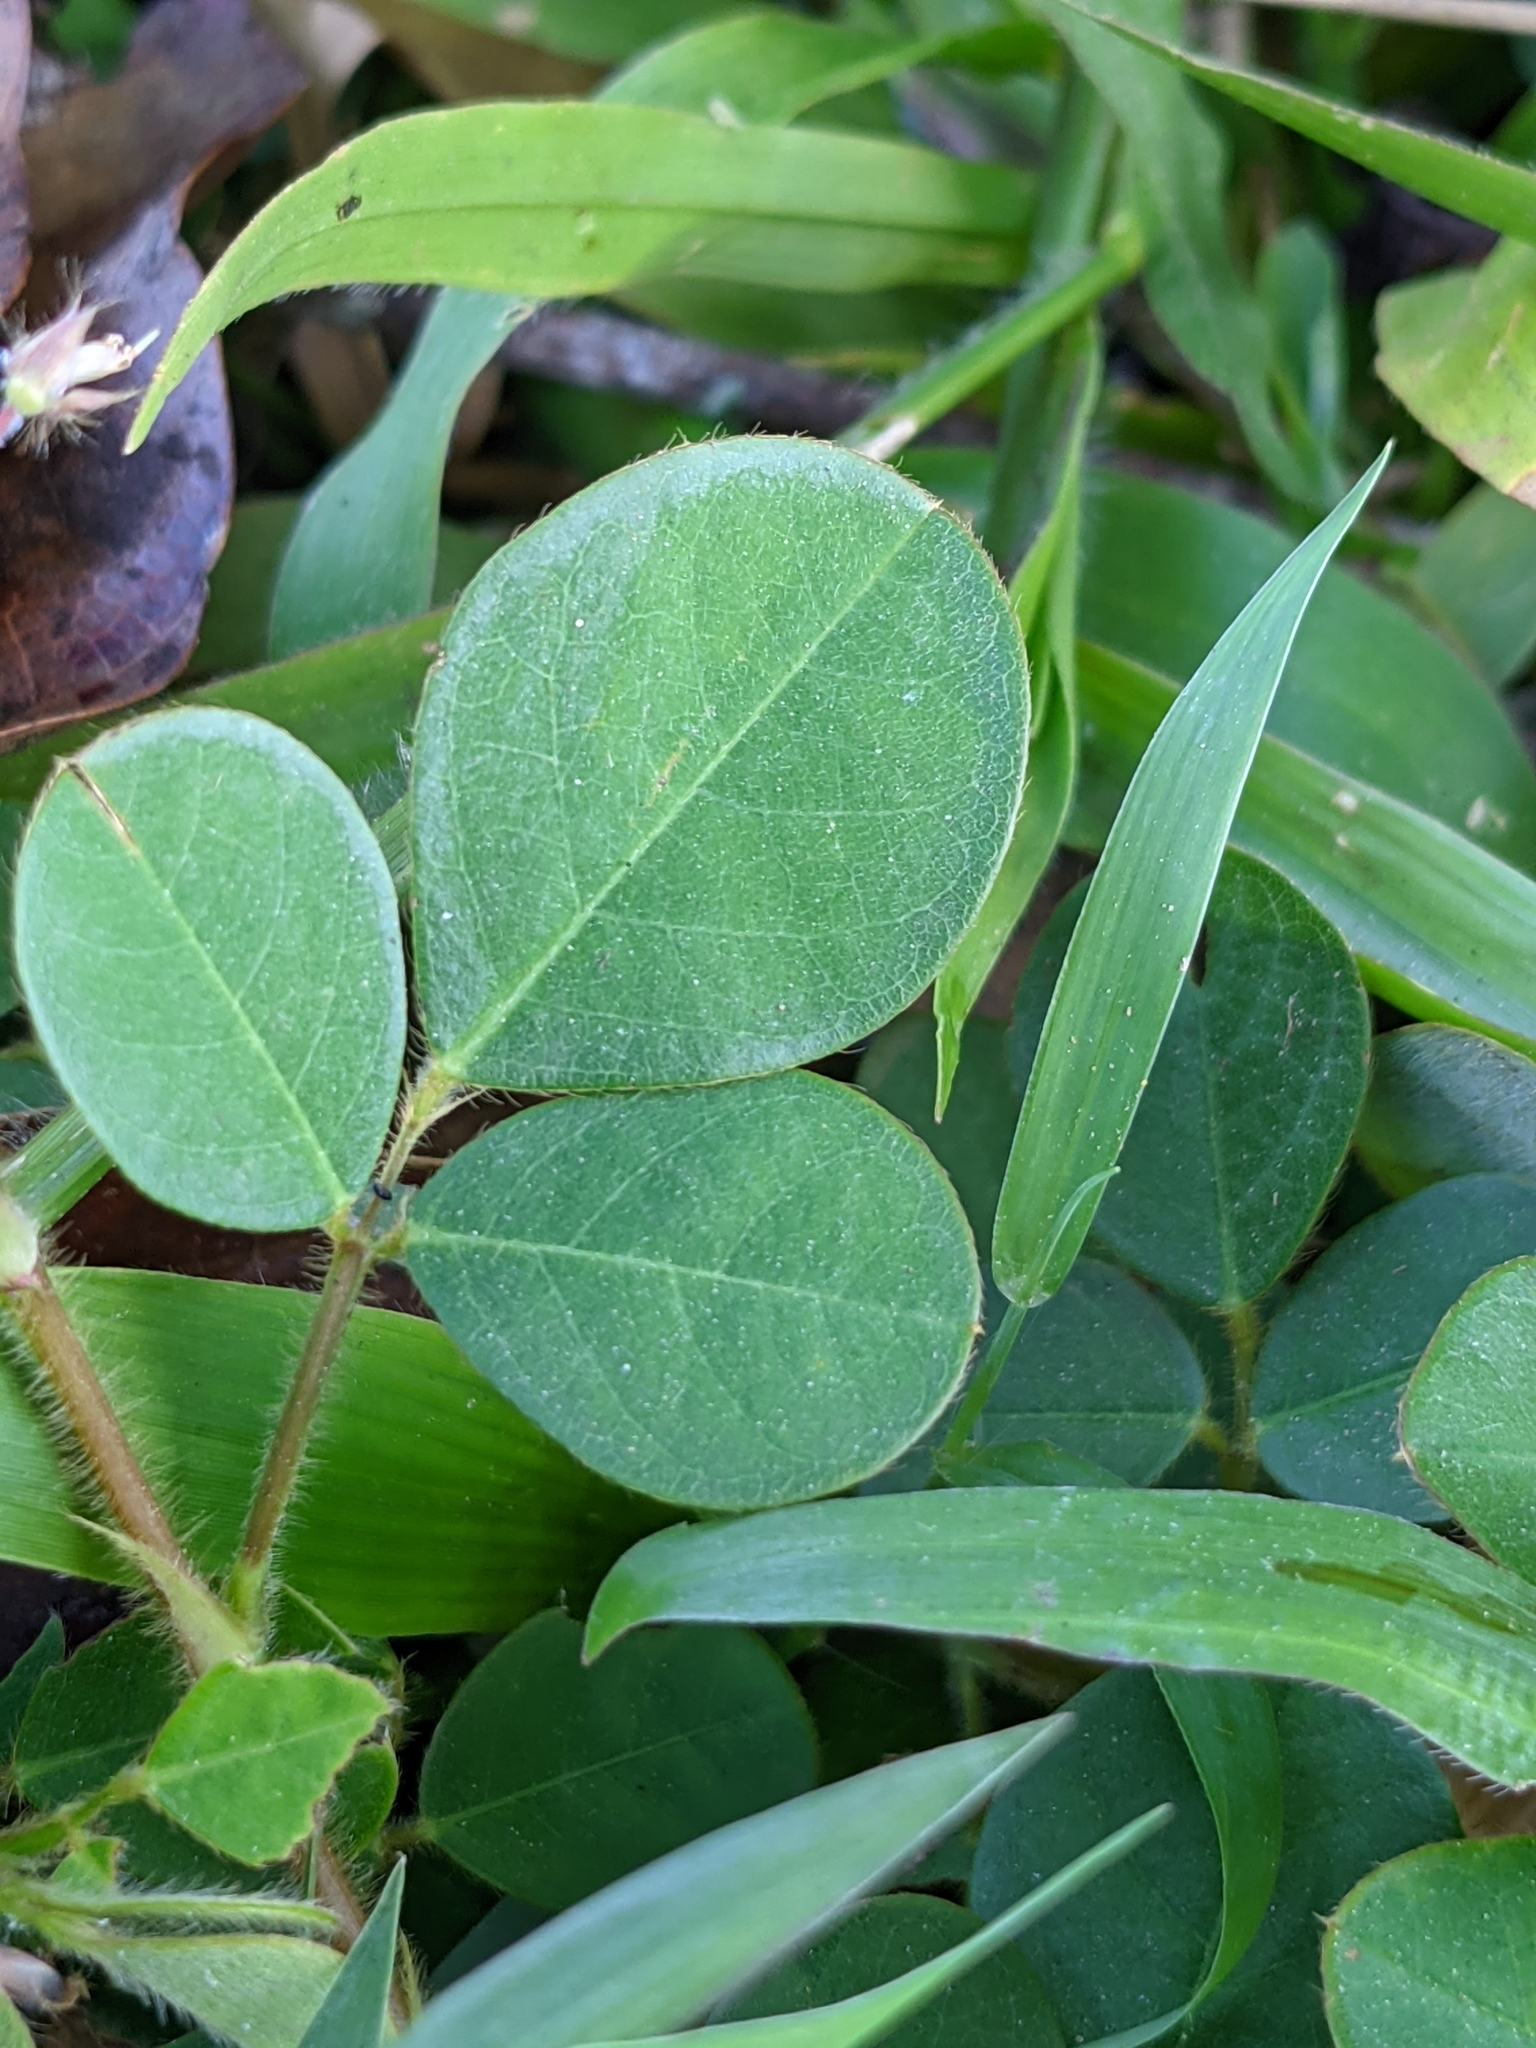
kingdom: Plantae
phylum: Tracheophyta
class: Magnoliopsida
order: Fabales
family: Fabaceae
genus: Grona
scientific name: Grona adscendens
